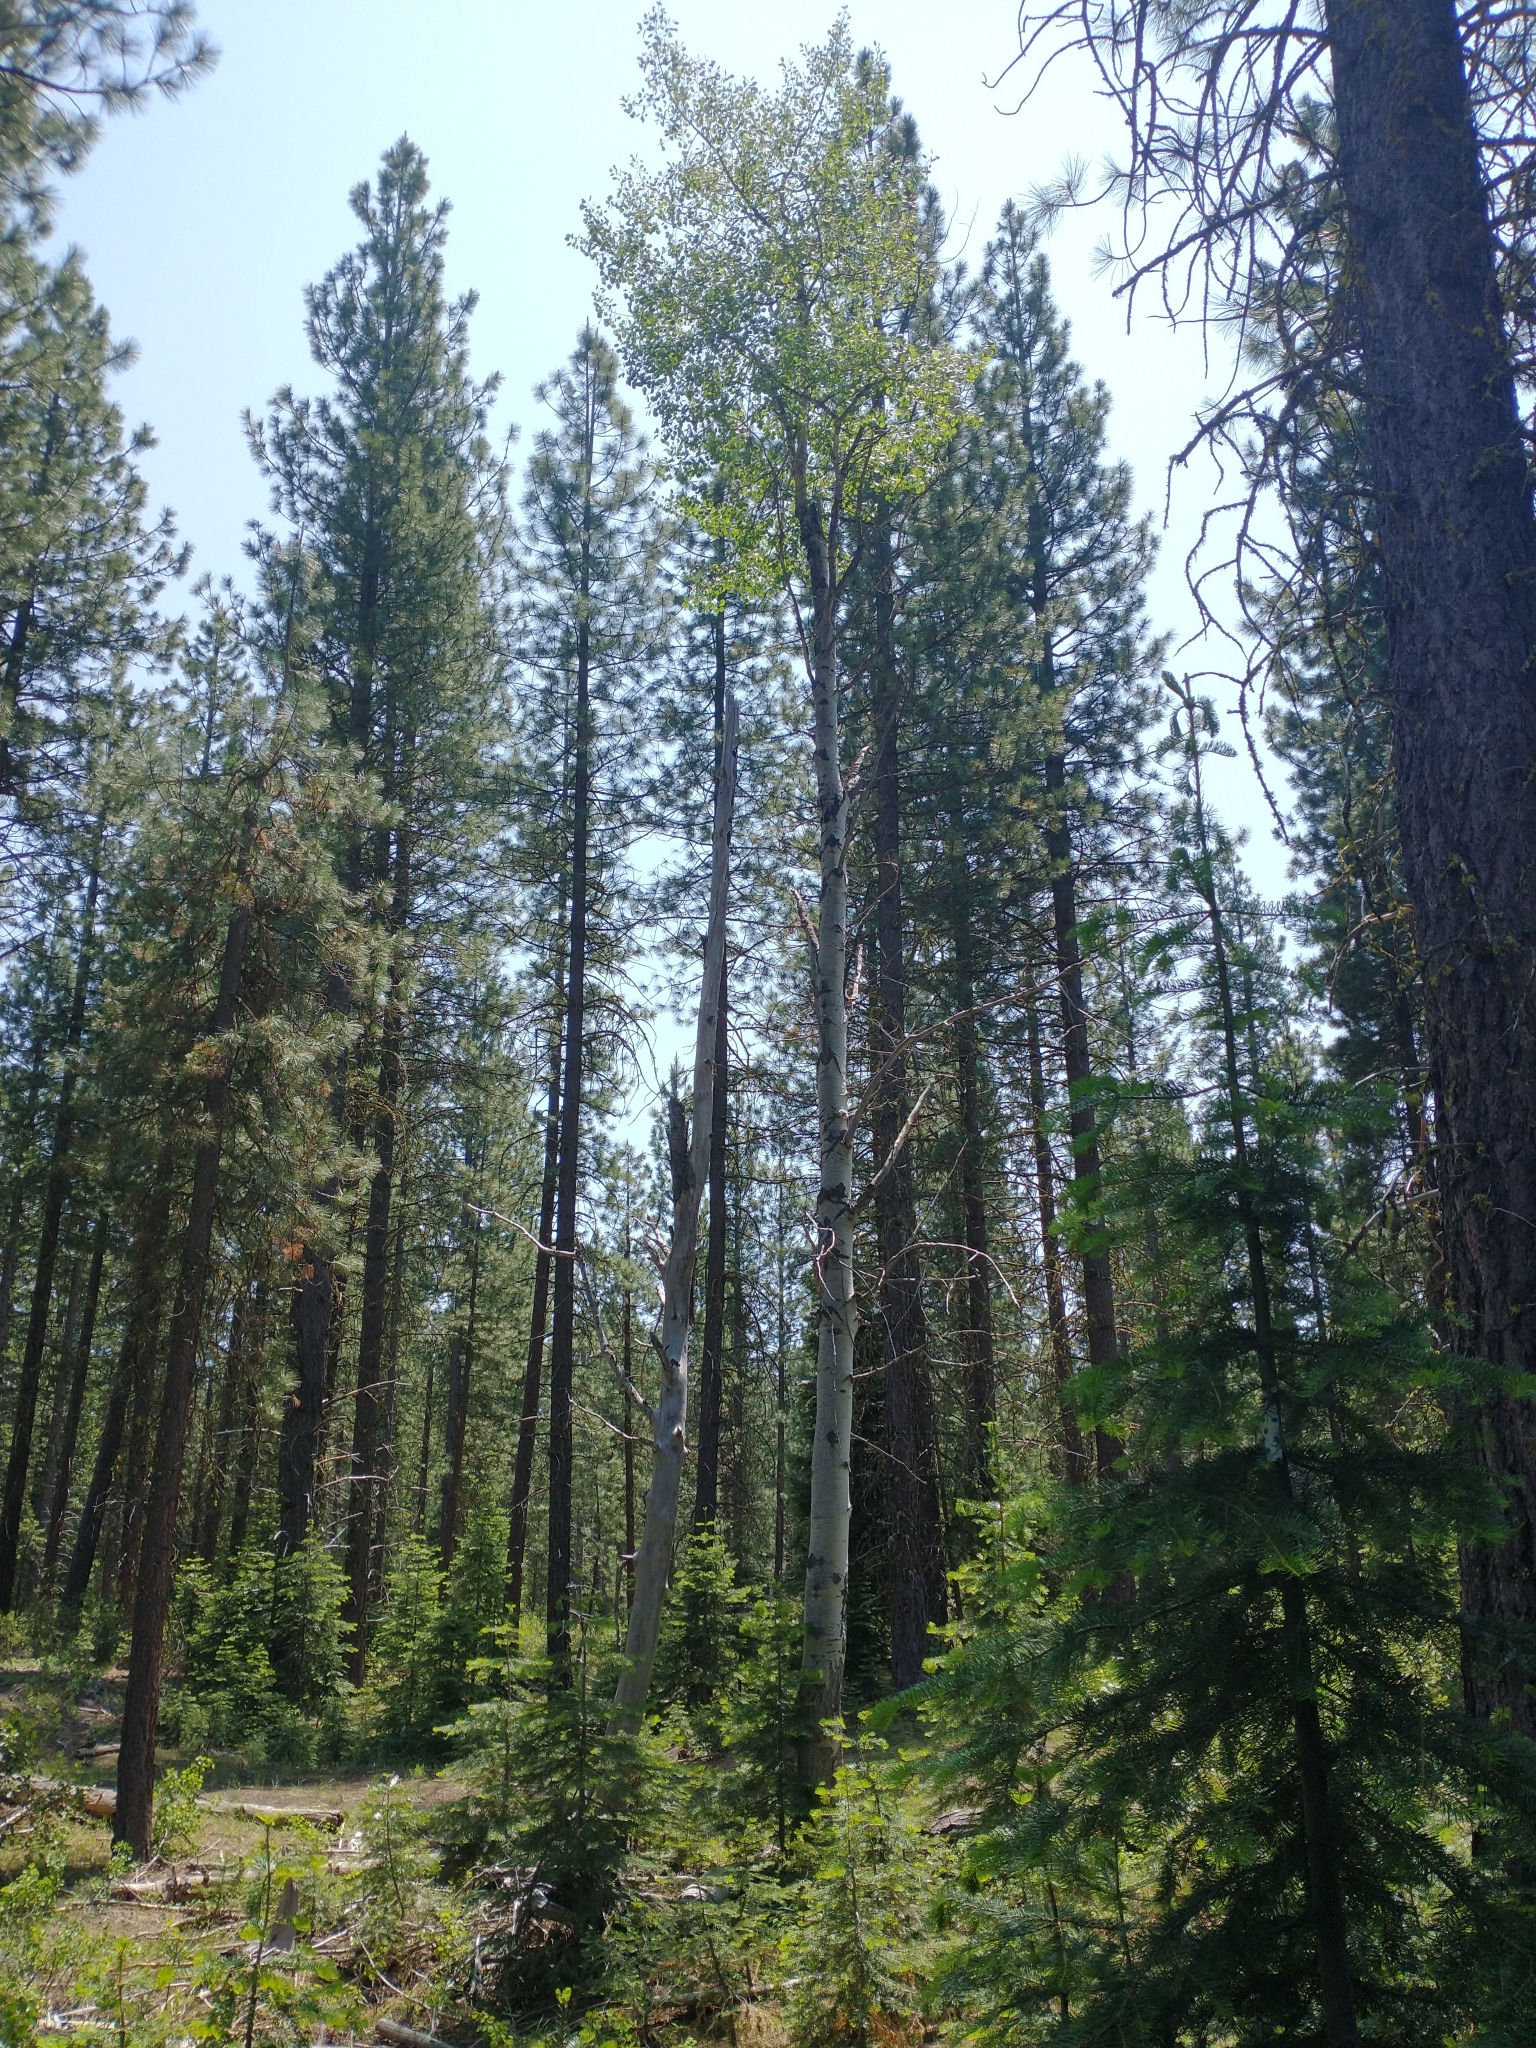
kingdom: Plantae
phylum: Tracheophyta
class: Magnoliopsida
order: Malpighiales
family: Salicaceae
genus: Populus
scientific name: Populus tremuloides
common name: Quaking aspen
